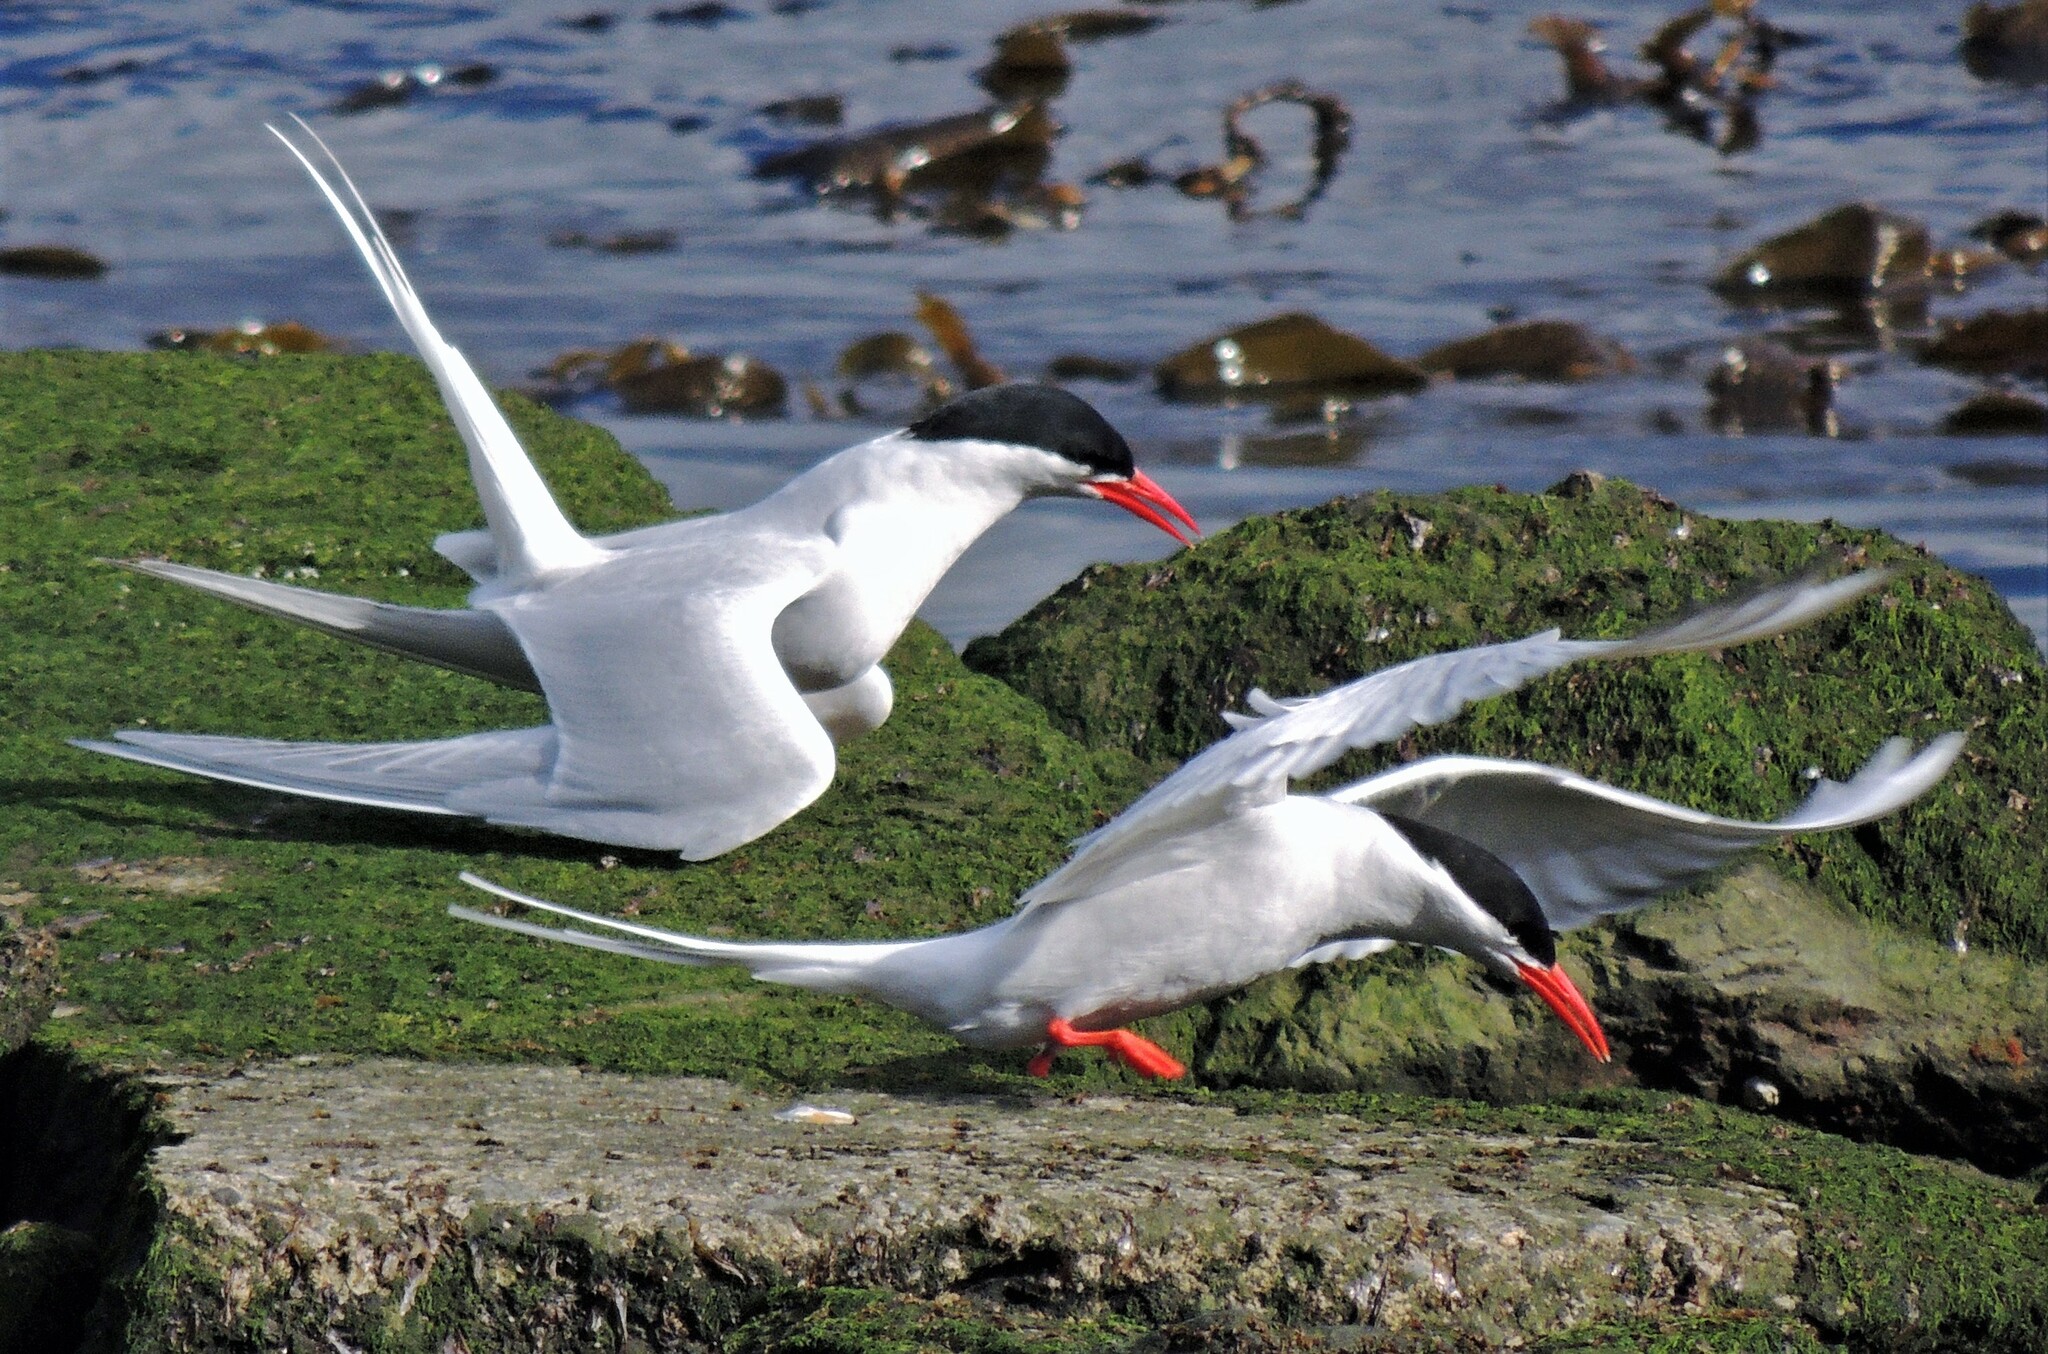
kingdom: Animalia
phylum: Chordata
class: Aves
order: Charadriiformes
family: Laridae
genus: Sterna
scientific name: Sterna hirundinacea
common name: South american tern
